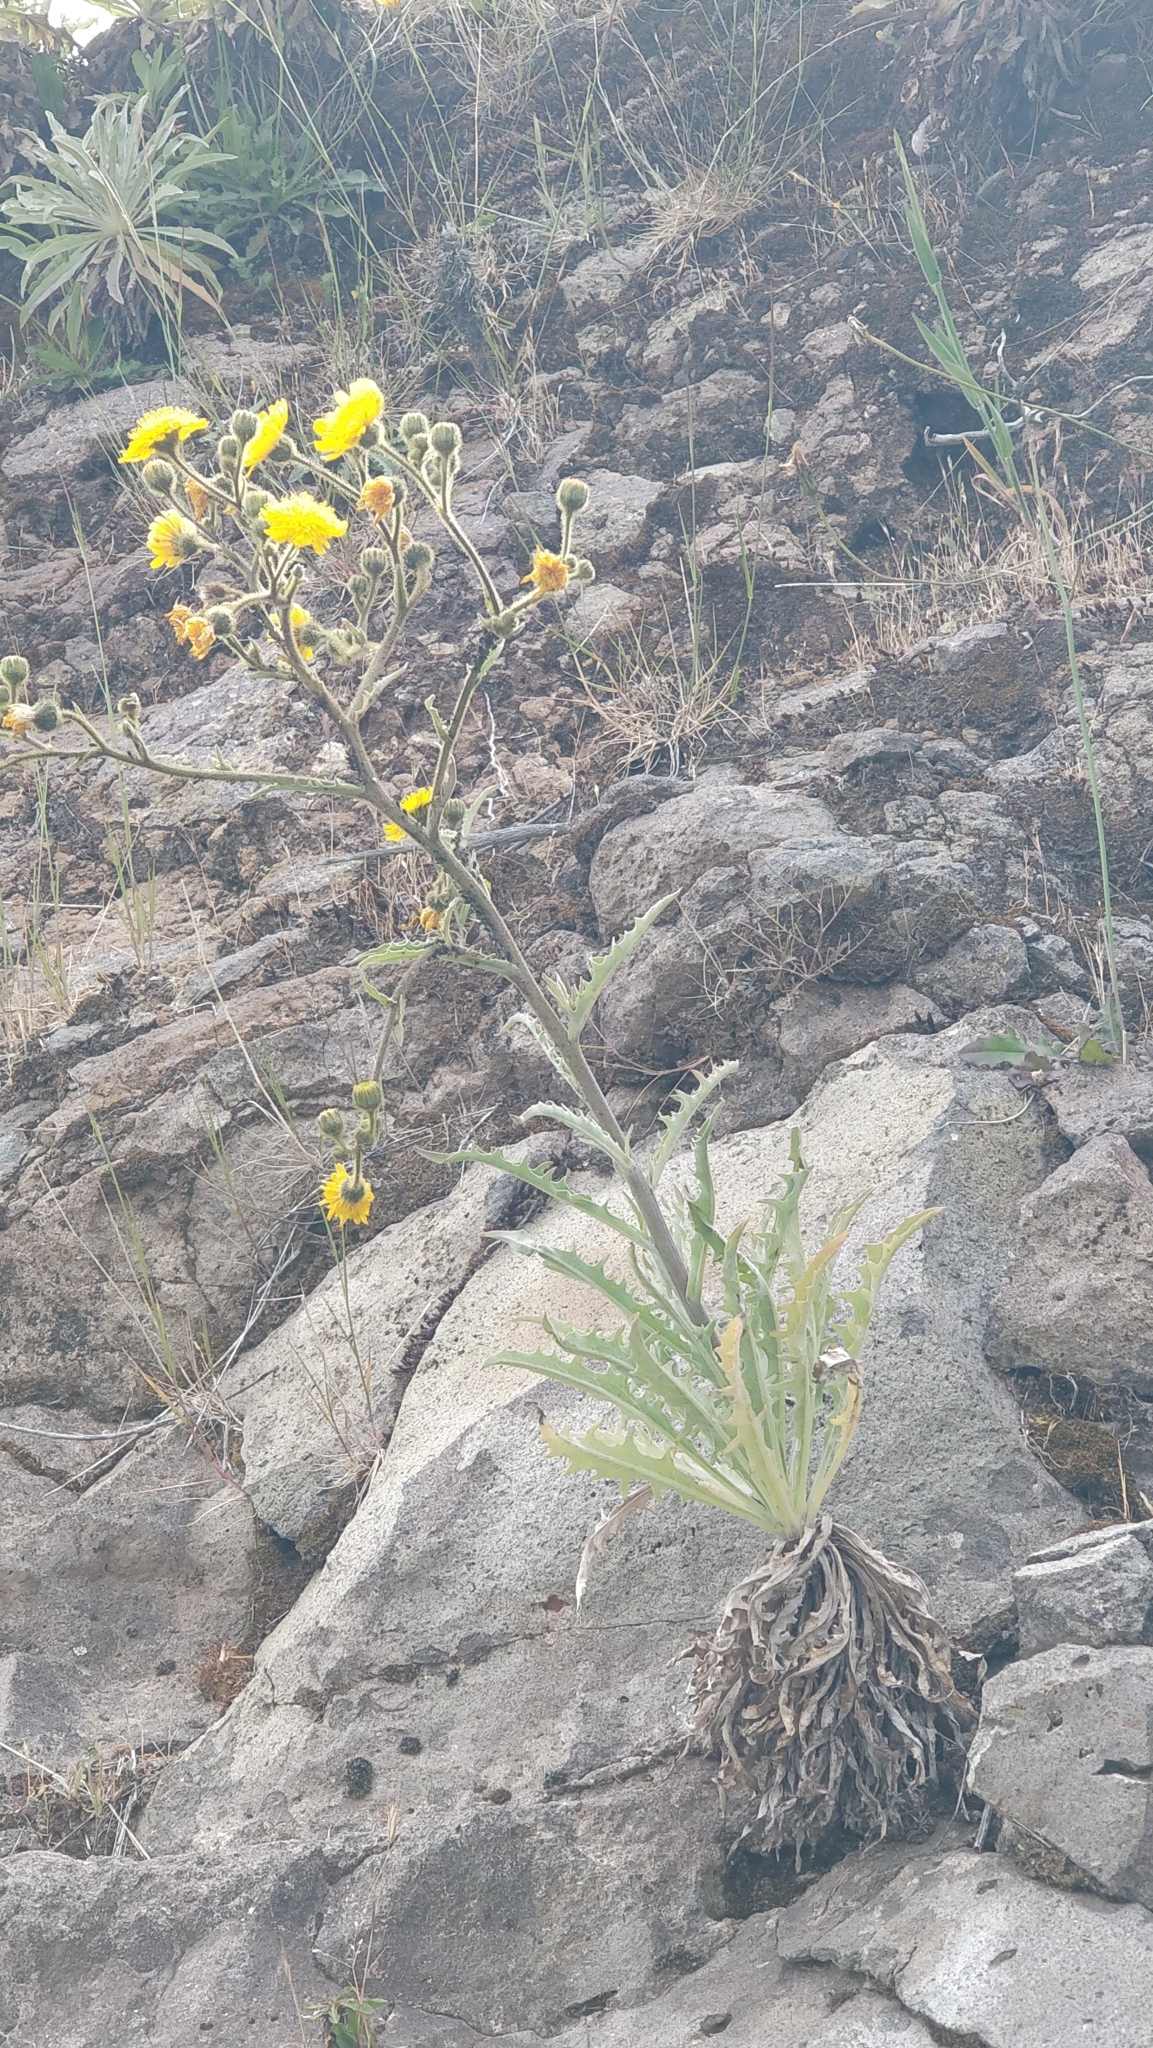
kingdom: Plantae
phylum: Tracheophyta
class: Magnoliopsida
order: Asterales
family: Asteraceae
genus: Andryala
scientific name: Andryala glandulosa
